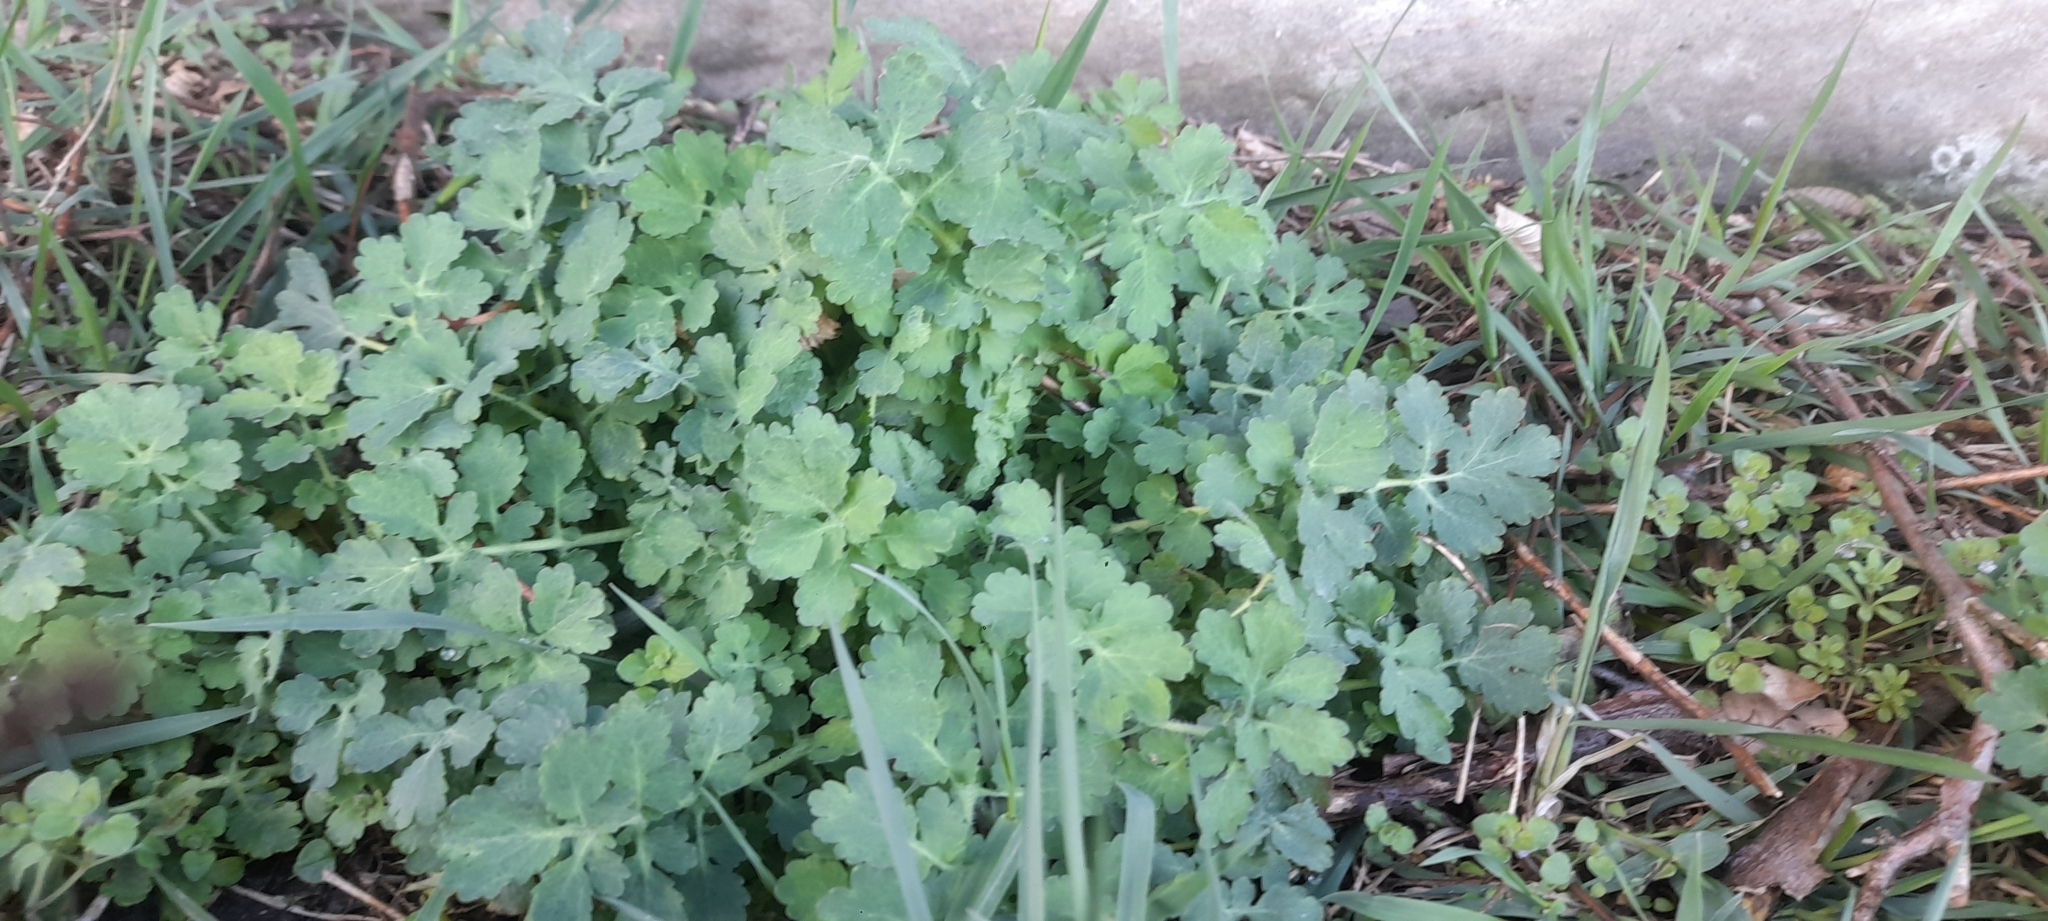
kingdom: Plantae
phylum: Tracheophyta
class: Magnoliopsida
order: Ranunculales
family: Papaveraceae
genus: Chelidonium
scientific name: Chelidonium majus
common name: Greater celandine
